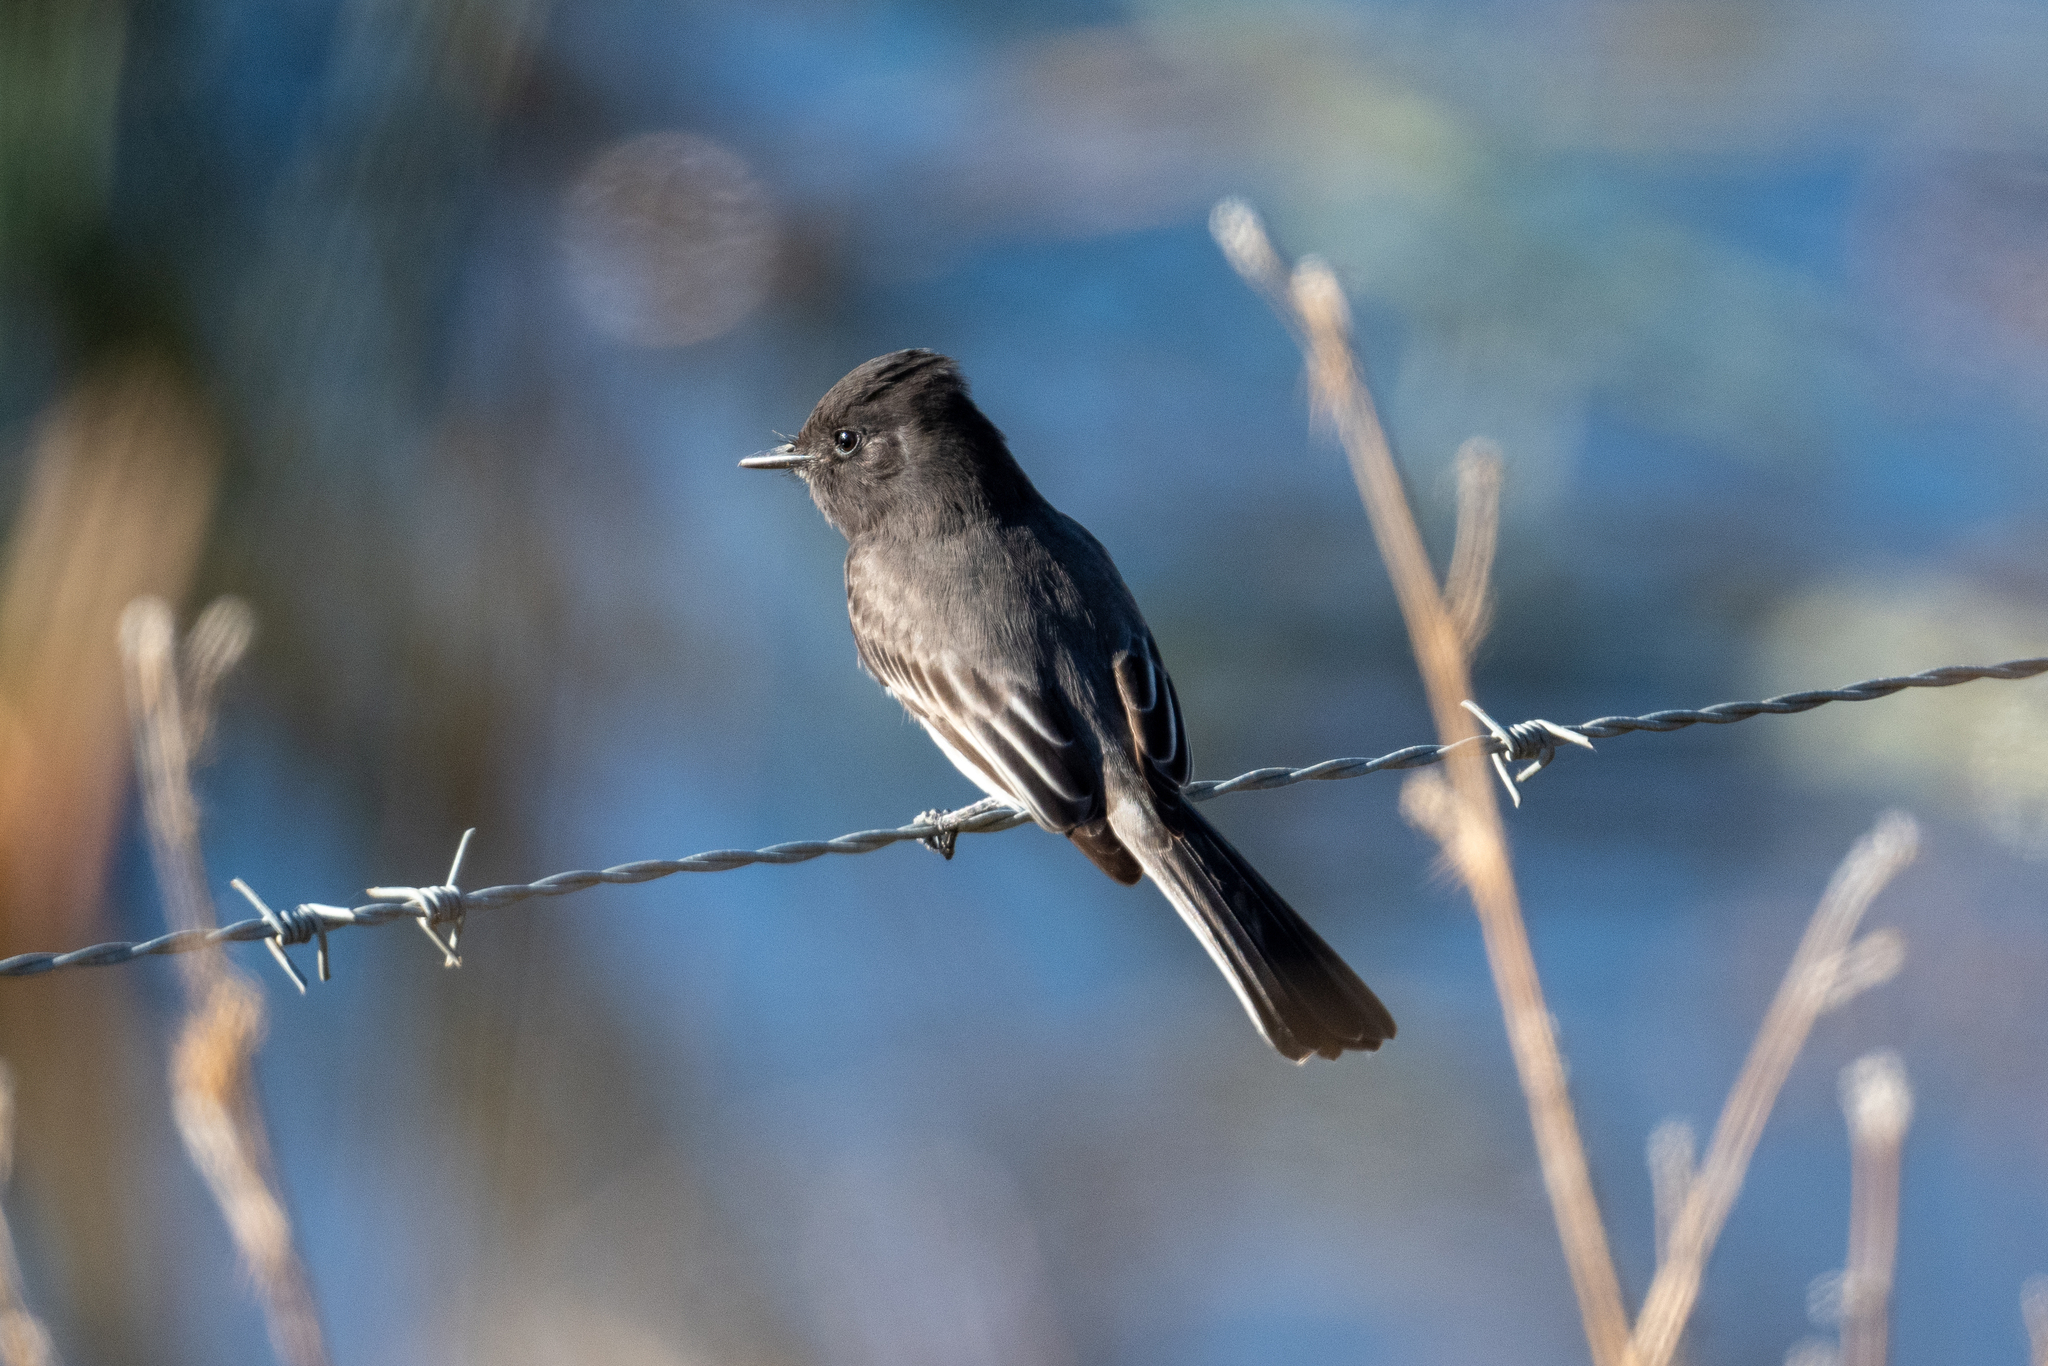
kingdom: Animalia
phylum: Chordata
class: Aves
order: Passeriformes
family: Tyrannidae
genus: Sayornis
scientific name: Sayornis nigricans
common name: Black phoebe
